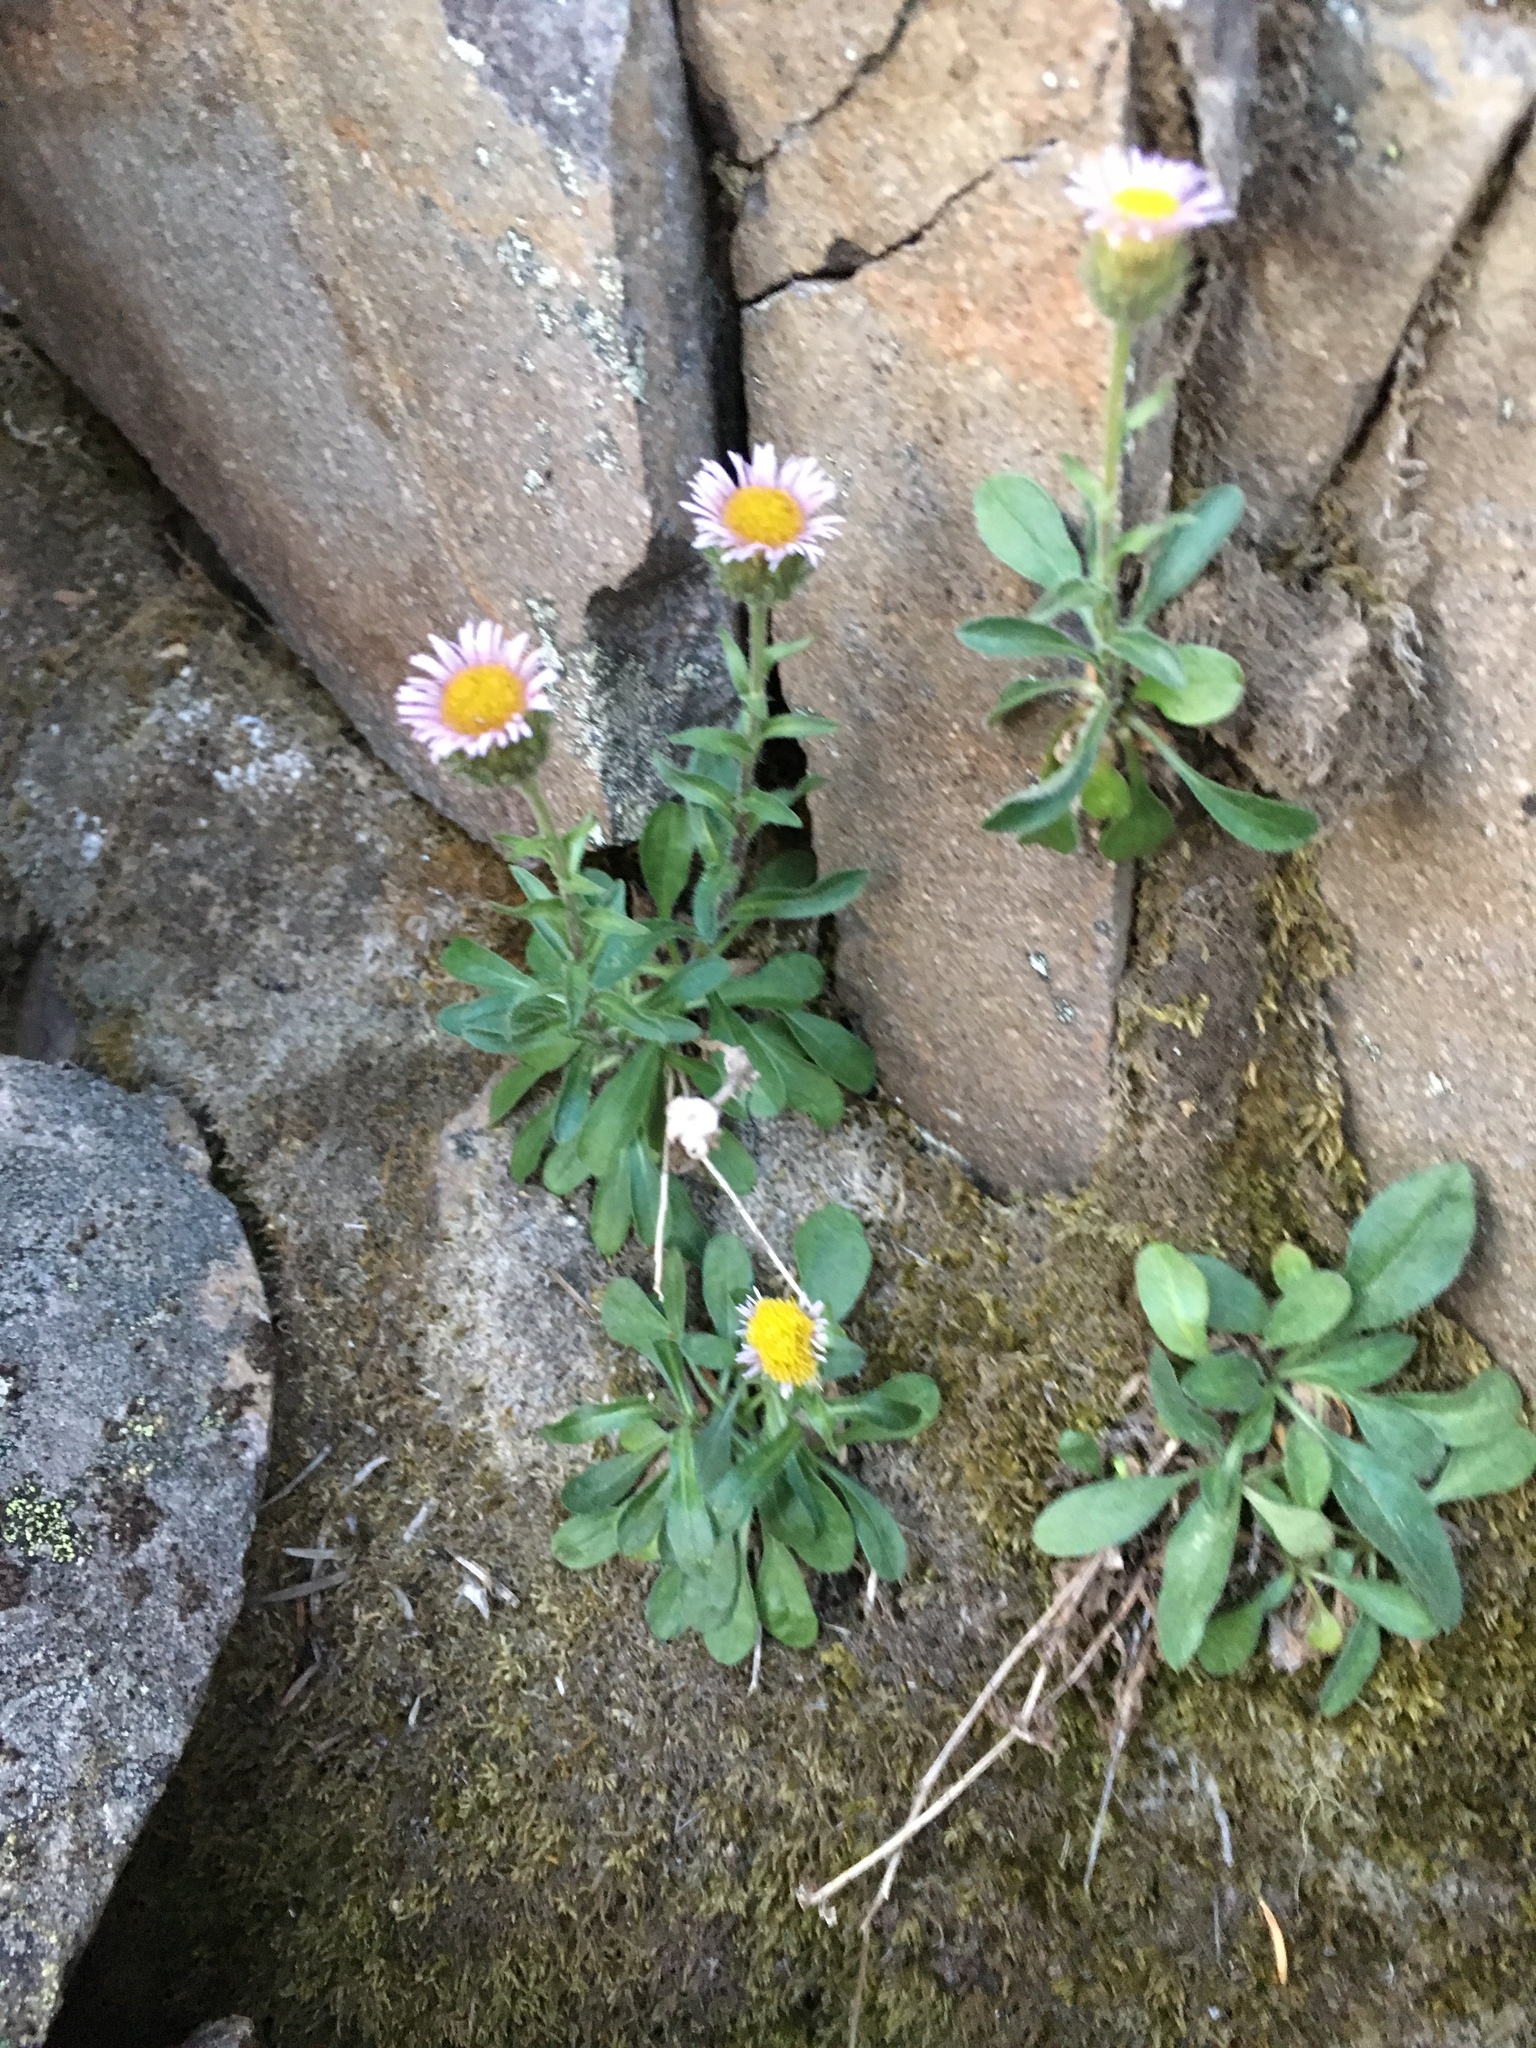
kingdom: Plantae
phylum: Tracheophyta
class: Magnoliopsida
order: Asterales
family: Asteraceae
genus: Erigeron
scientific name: Erigeron nivalis
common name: Snow fleabane
